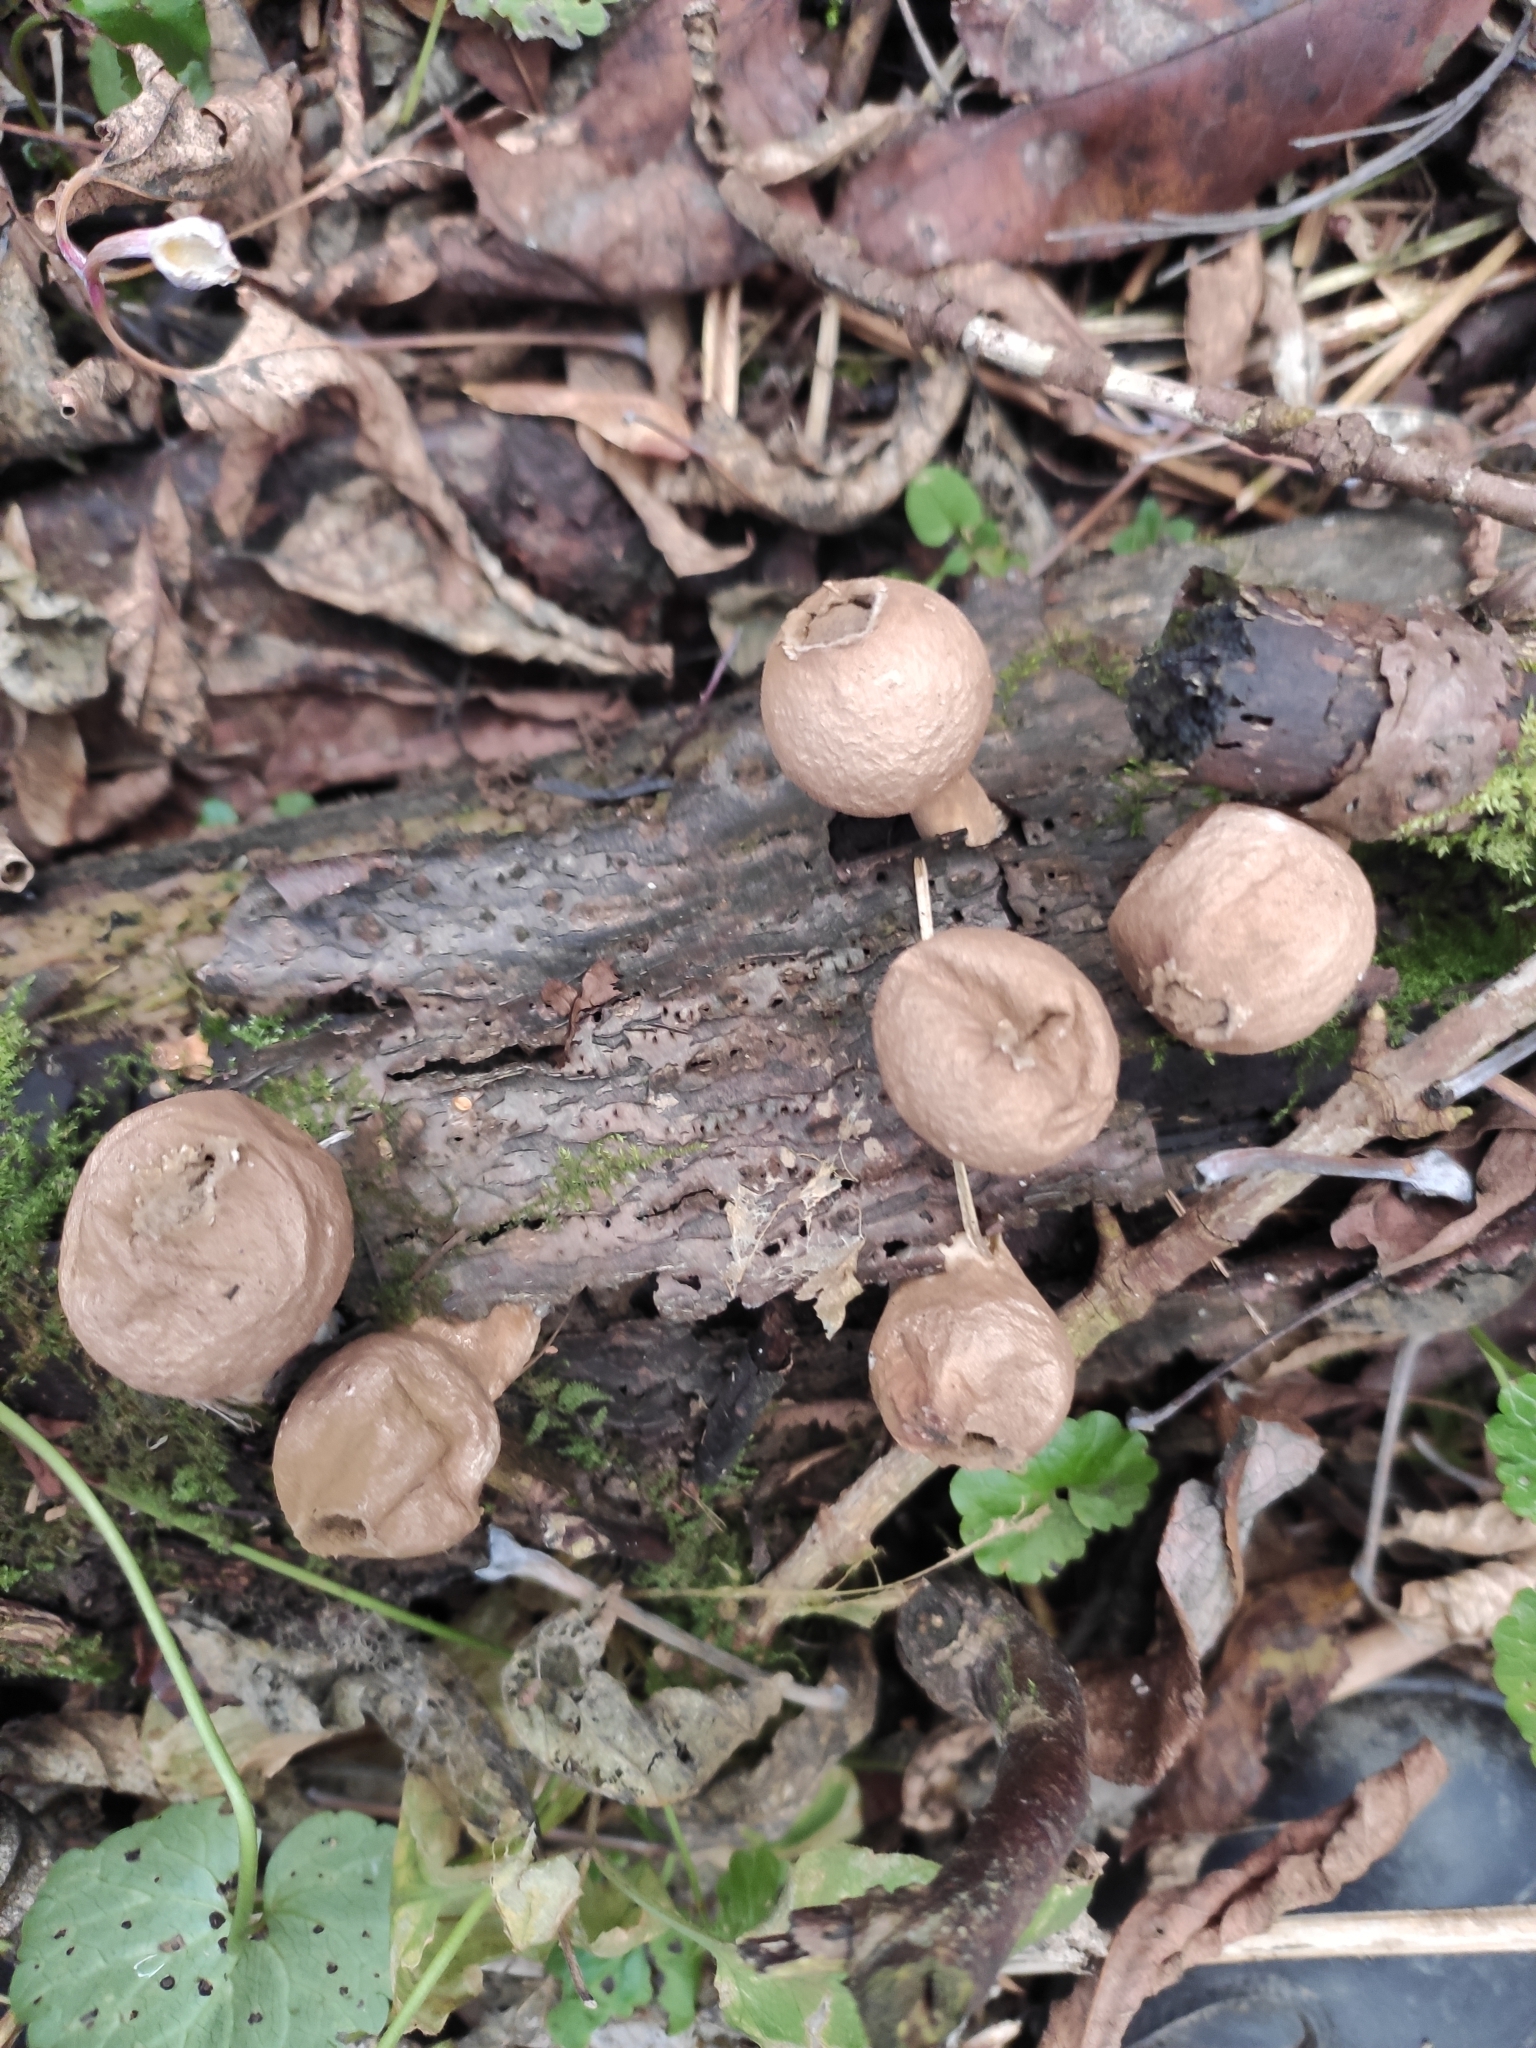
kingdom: Fungi
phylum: Basidiomycota
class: Agaricomycetes
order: Agaricales
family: Lycoperdaceae
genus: Apioperdon
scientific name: Apioperdon pyriforme
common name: Pear-shaped puffball
